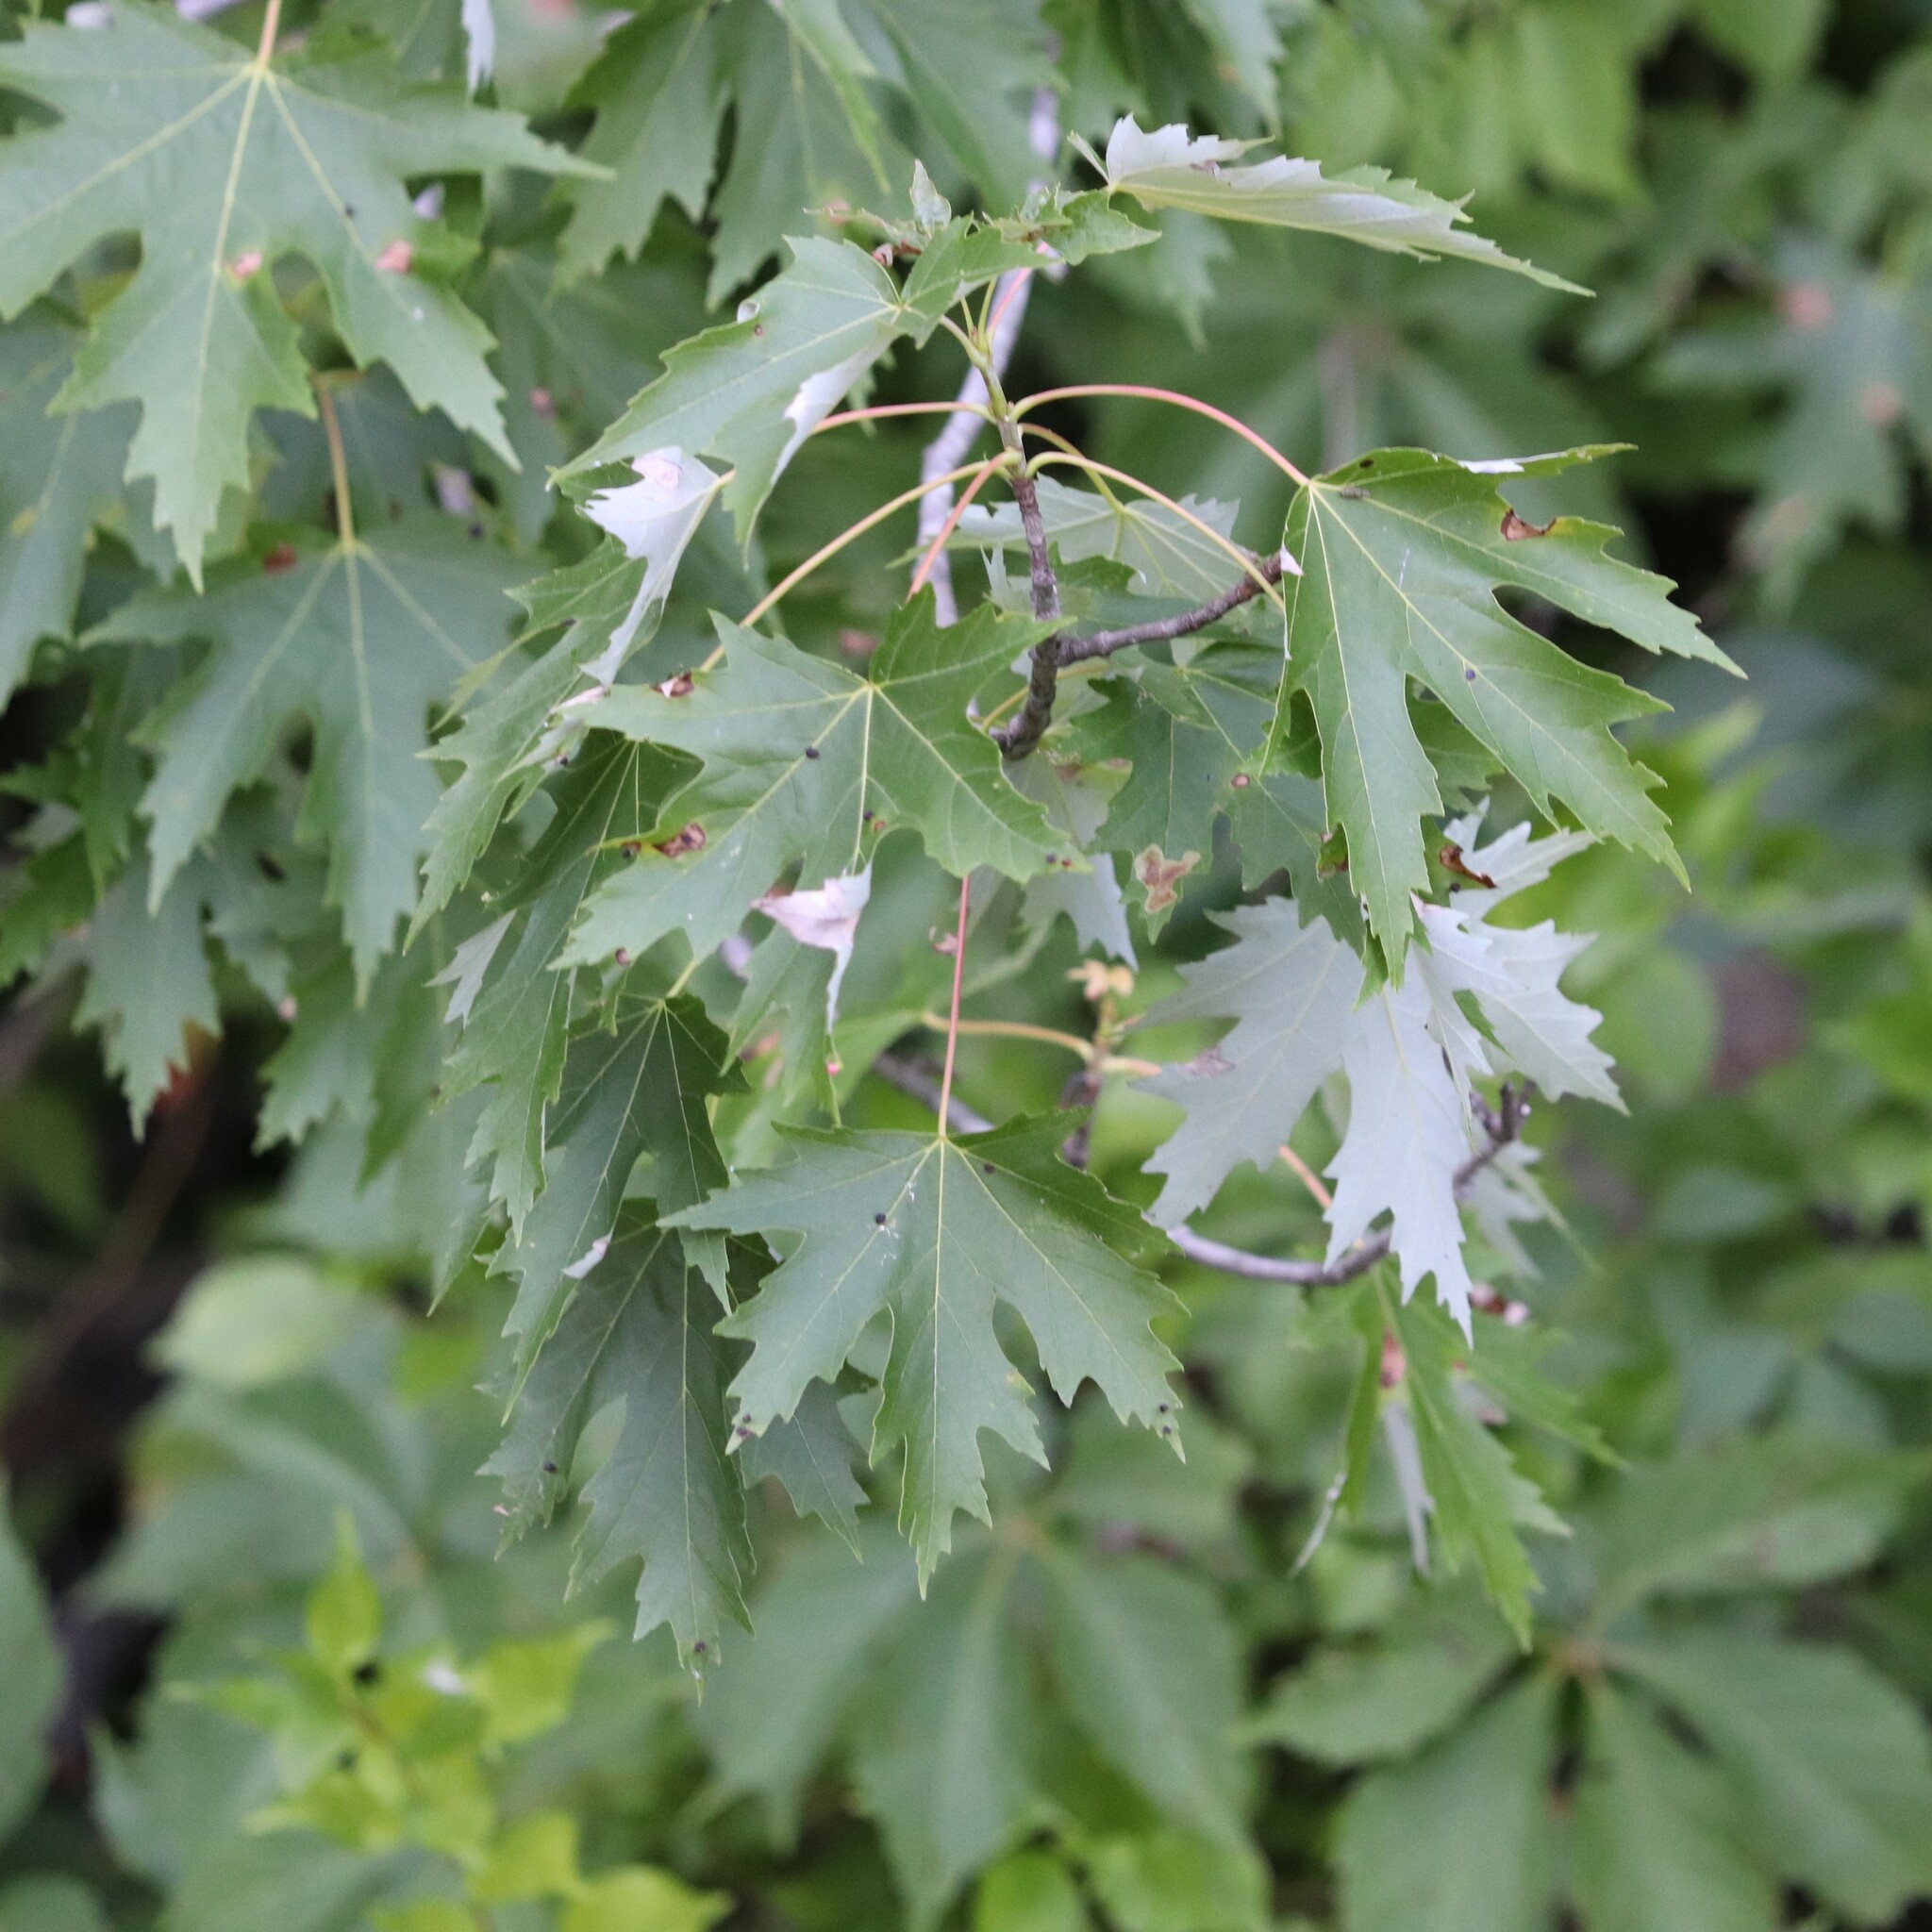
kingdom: Plantae
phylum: Tracheophyta
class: Magnoliopsida
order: Sapindales
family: Sapindaceae
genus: Acer
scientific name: Acer saccharinum
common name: Silver maple
